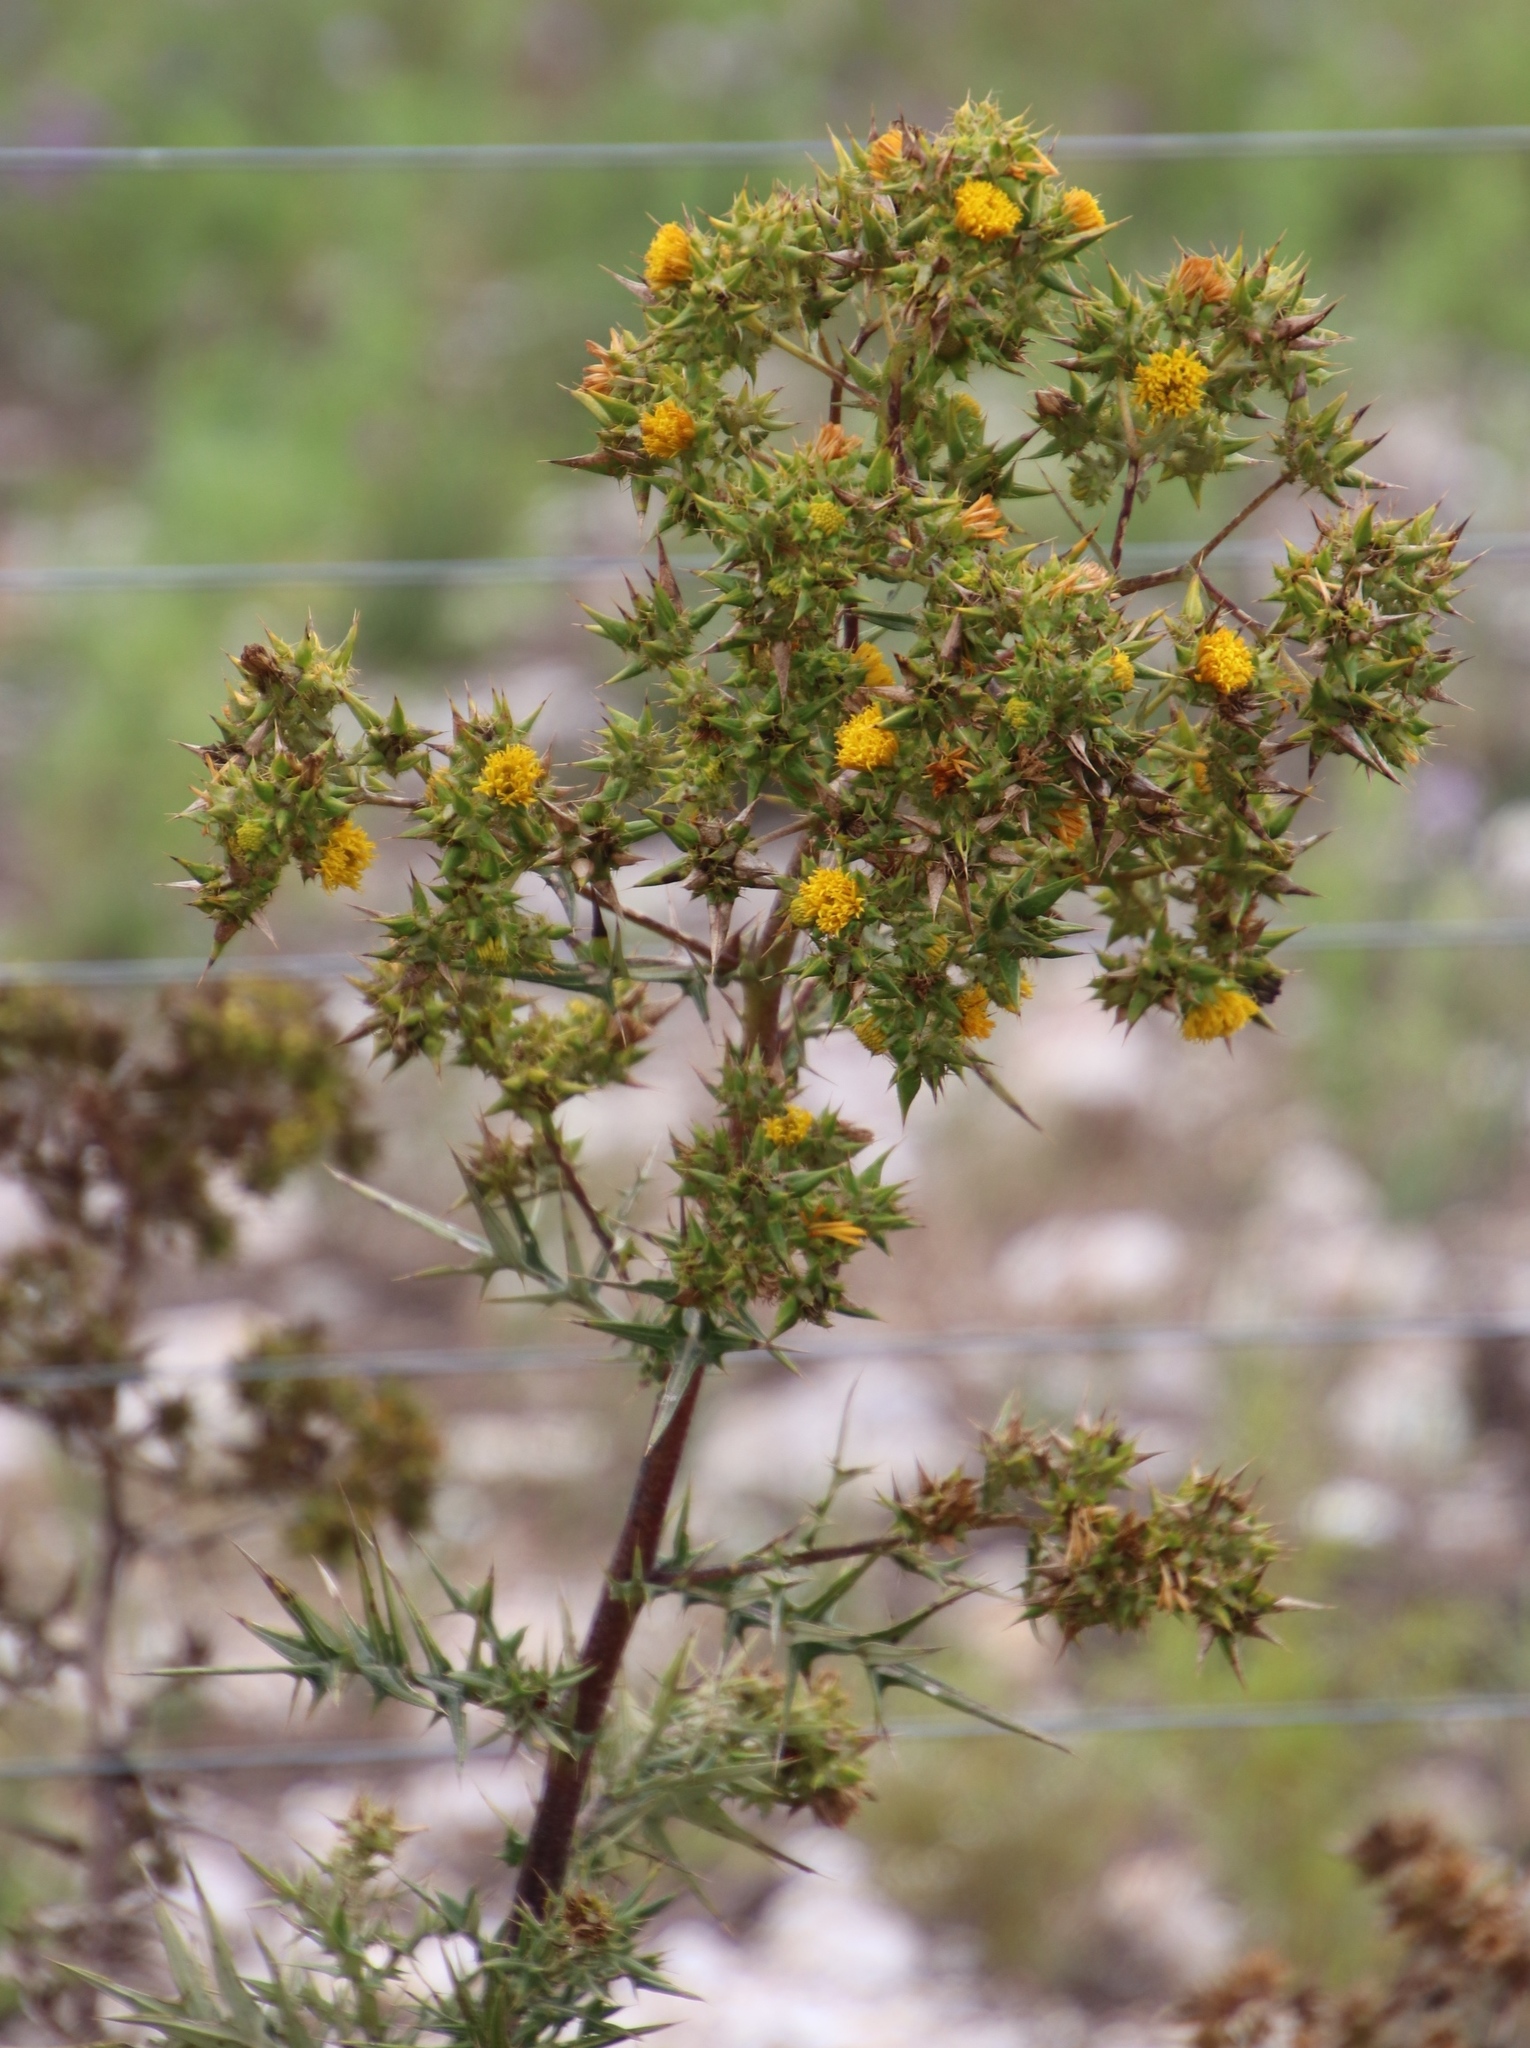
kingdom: Plantae
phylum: Tracheophyta
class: Magnoliopsida
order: Asterales
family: Asteraceae
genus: Berkheya
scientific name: Berkheya rigida
